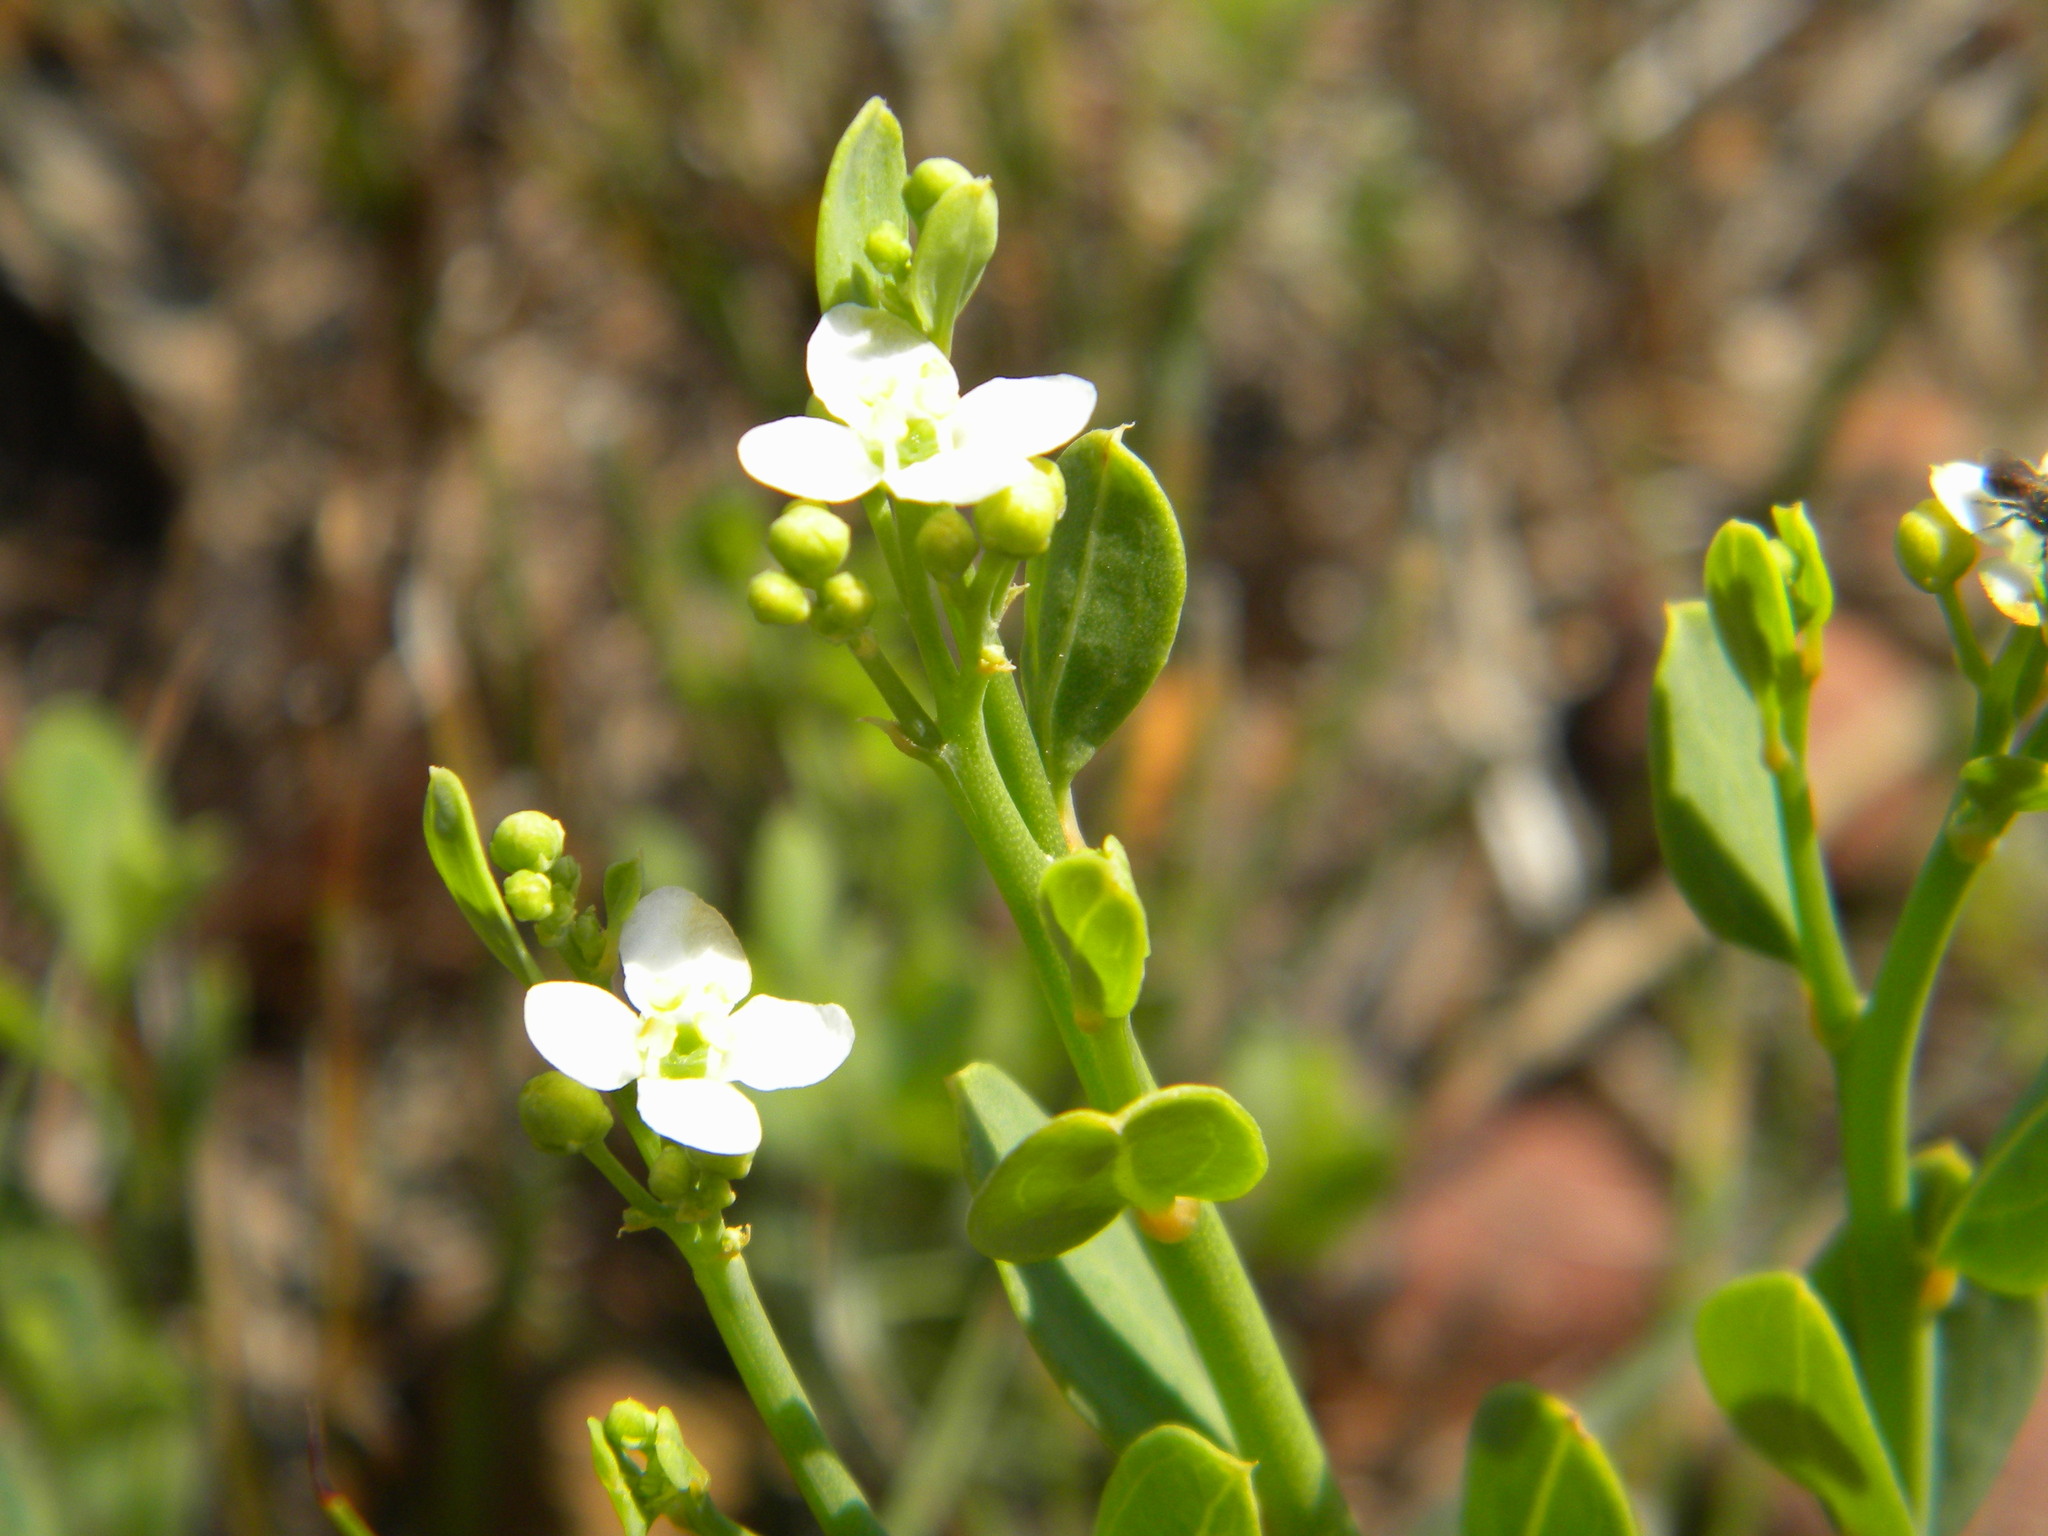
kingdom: Plantae
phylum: Tracheophyta
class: Magnoliopsida
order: Solanales
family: Montiniaceae
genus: Montinia
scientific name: Montinia caryophyllacea
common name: Wild clove-bush
